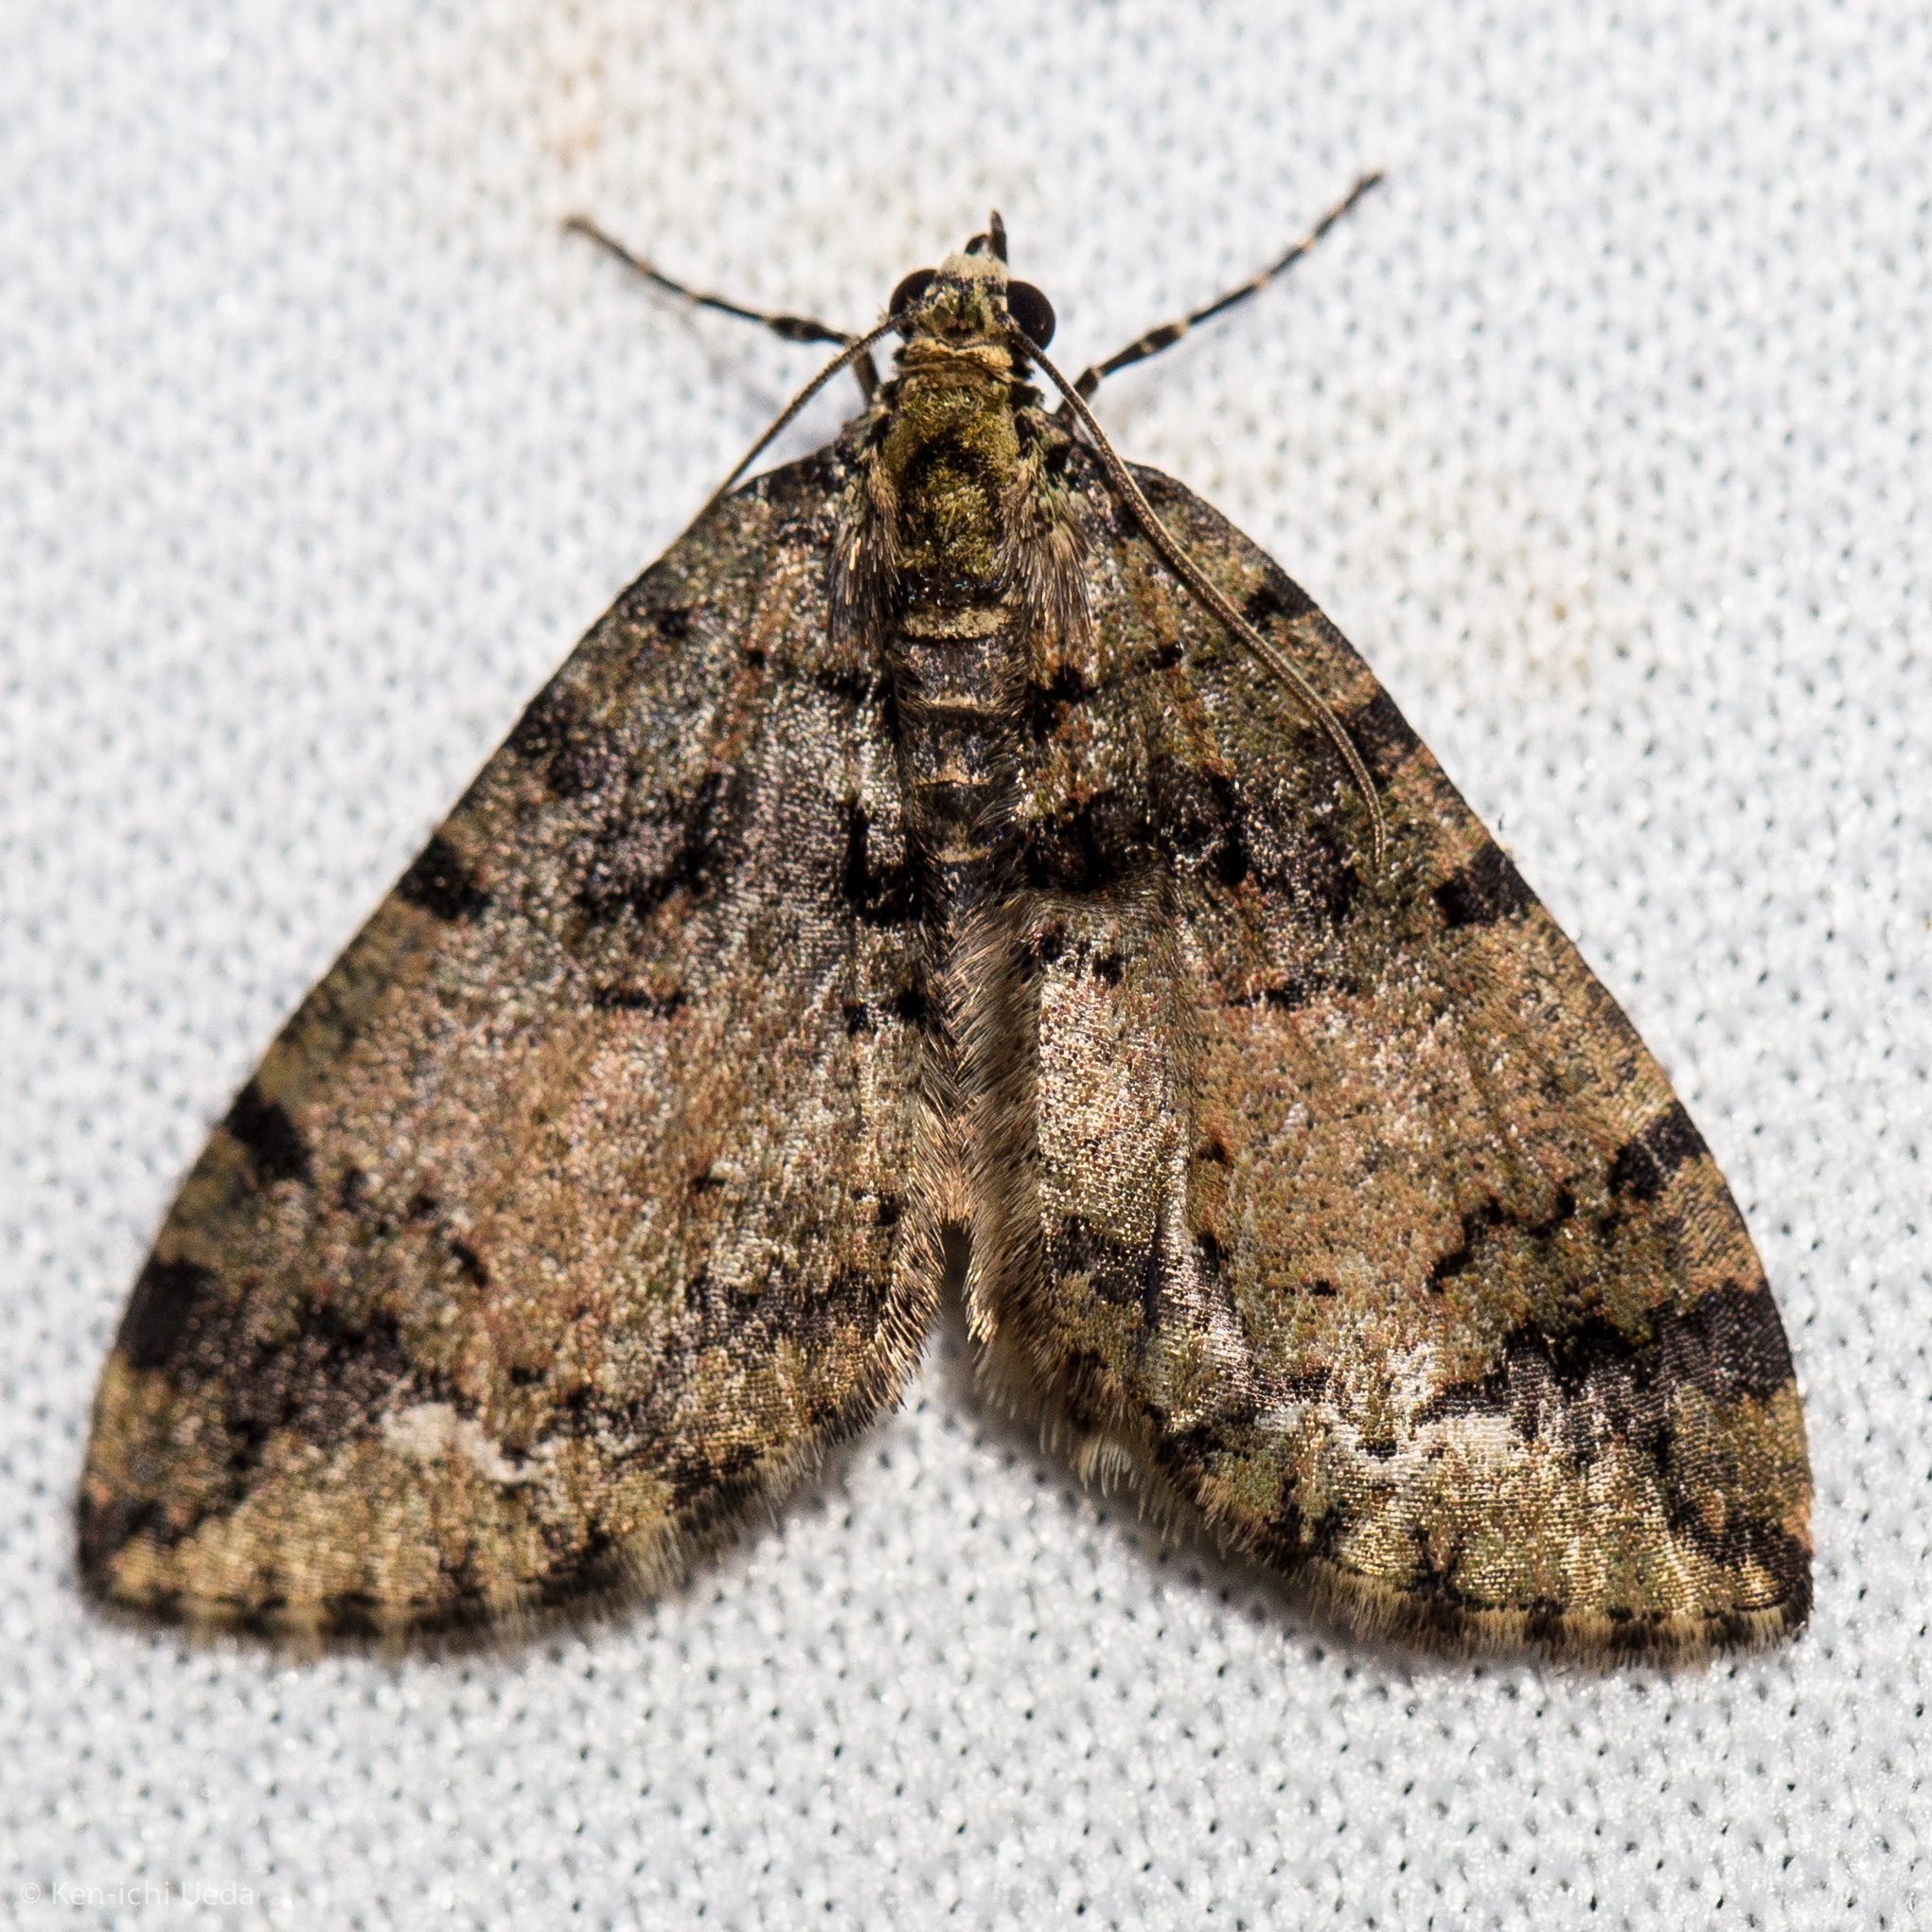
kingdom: Animalia
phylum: Arthropoda
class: Insecta
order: Lepidoptera
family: Geometridae
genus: Hydriomena
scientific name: Hydriomena albifasciata
